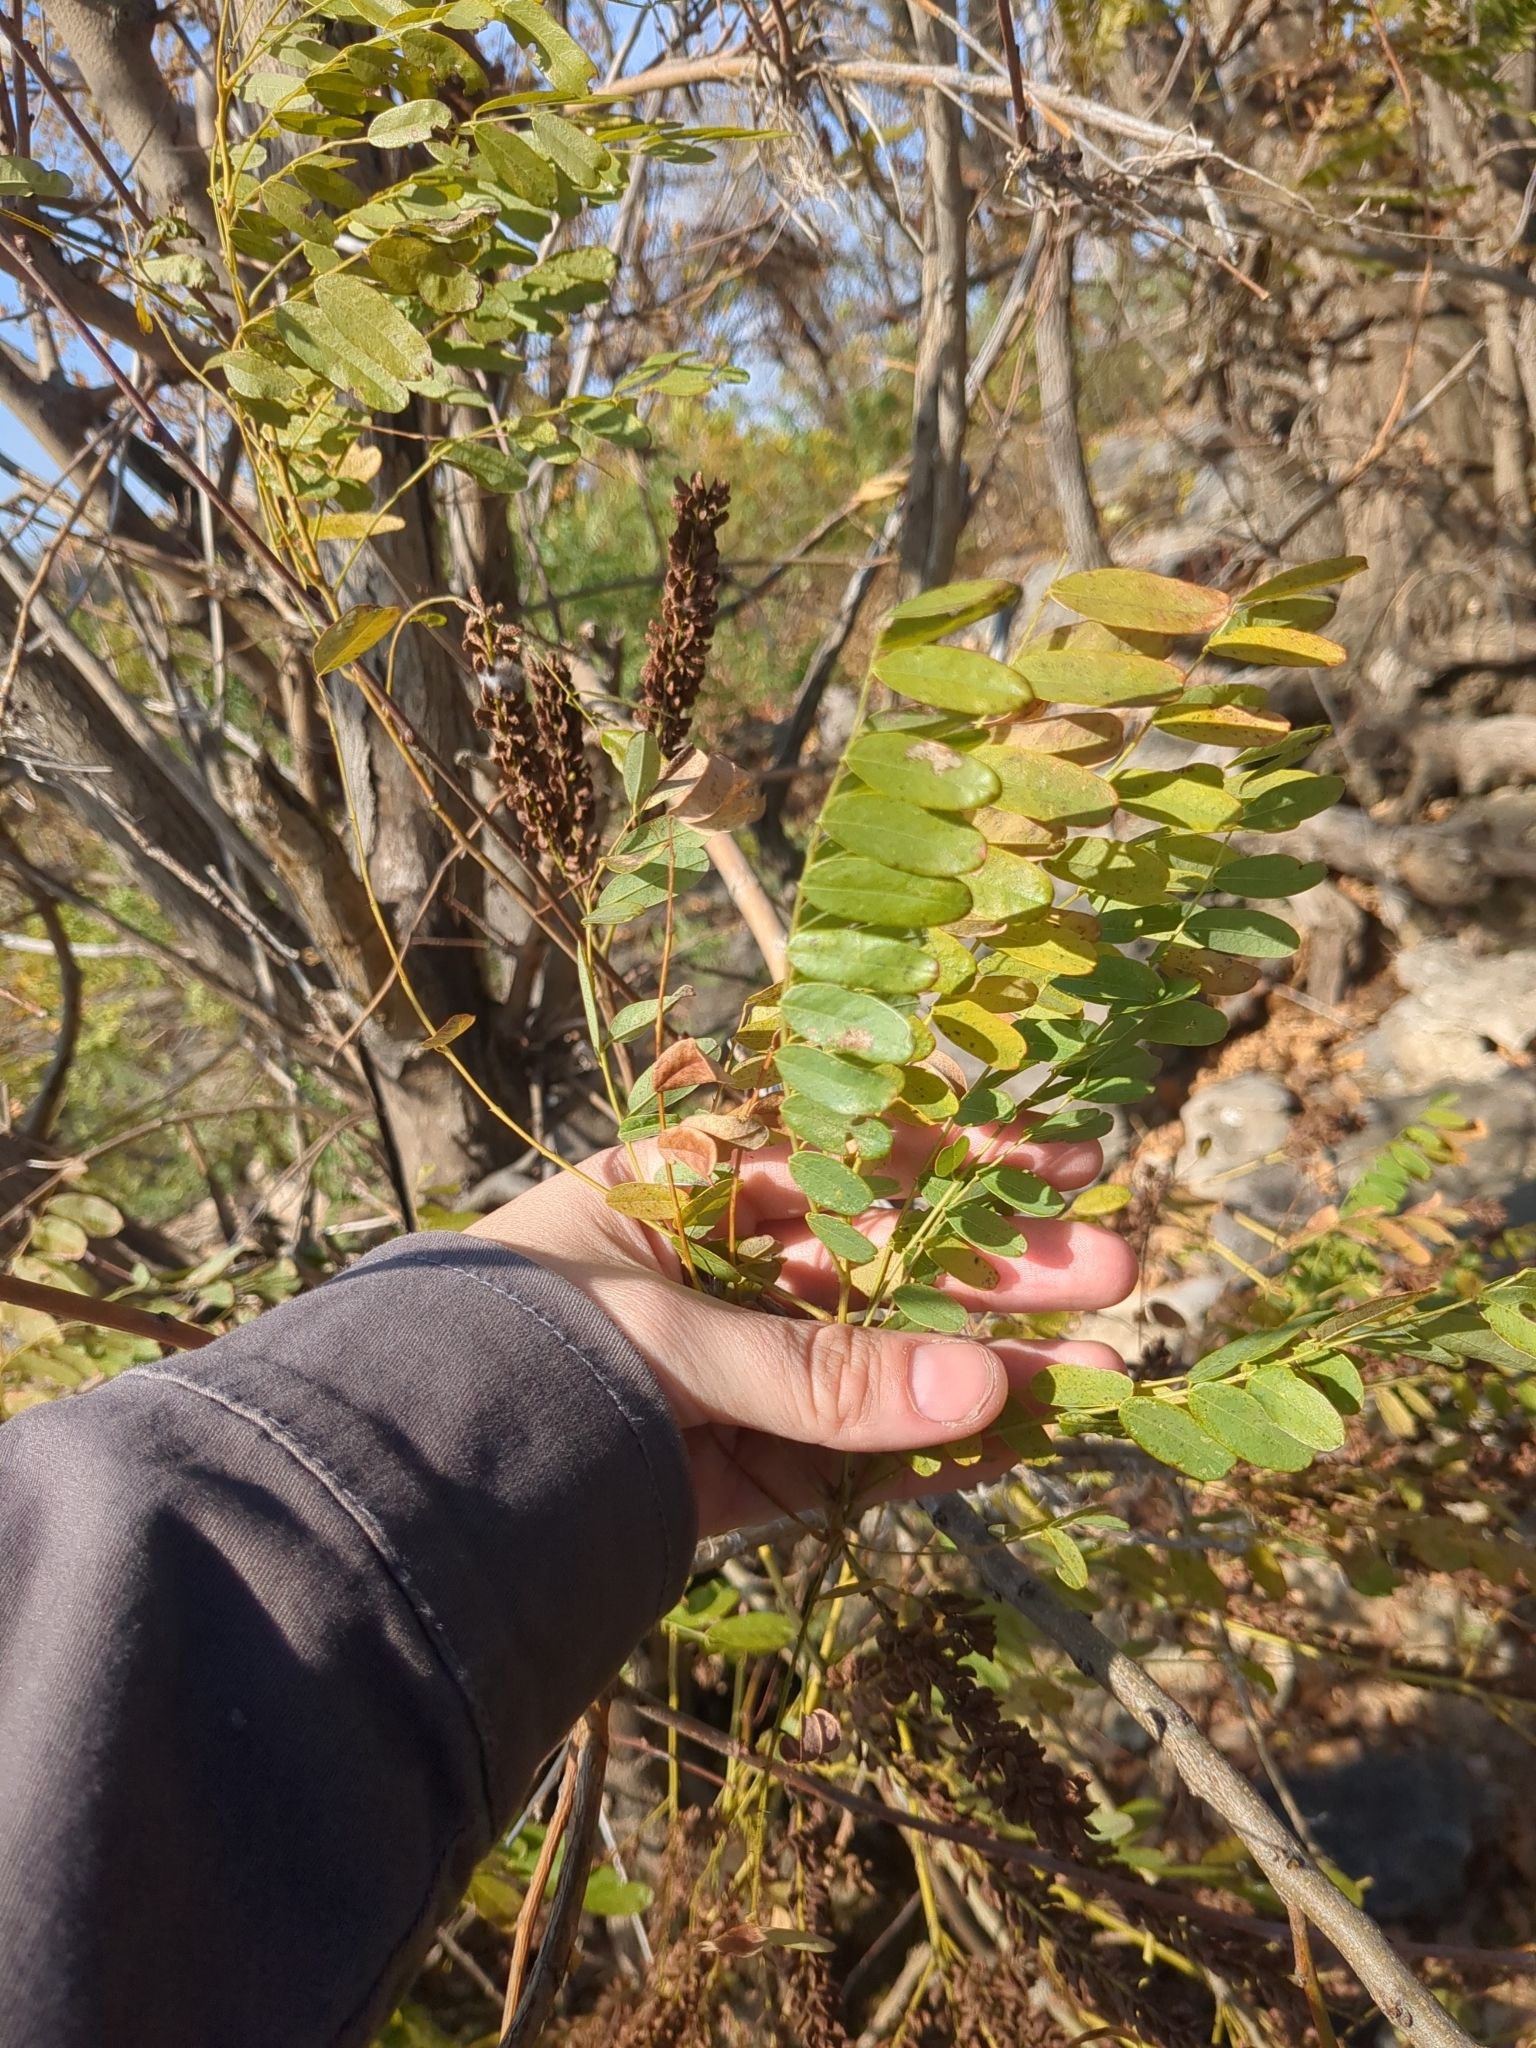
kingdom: Plantae
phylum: Tracheophyta
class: Magnoliopsida
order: Fabales
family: Fabaceae
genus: Amorpha
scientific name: Amorpha fruticosa
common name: False indigo
